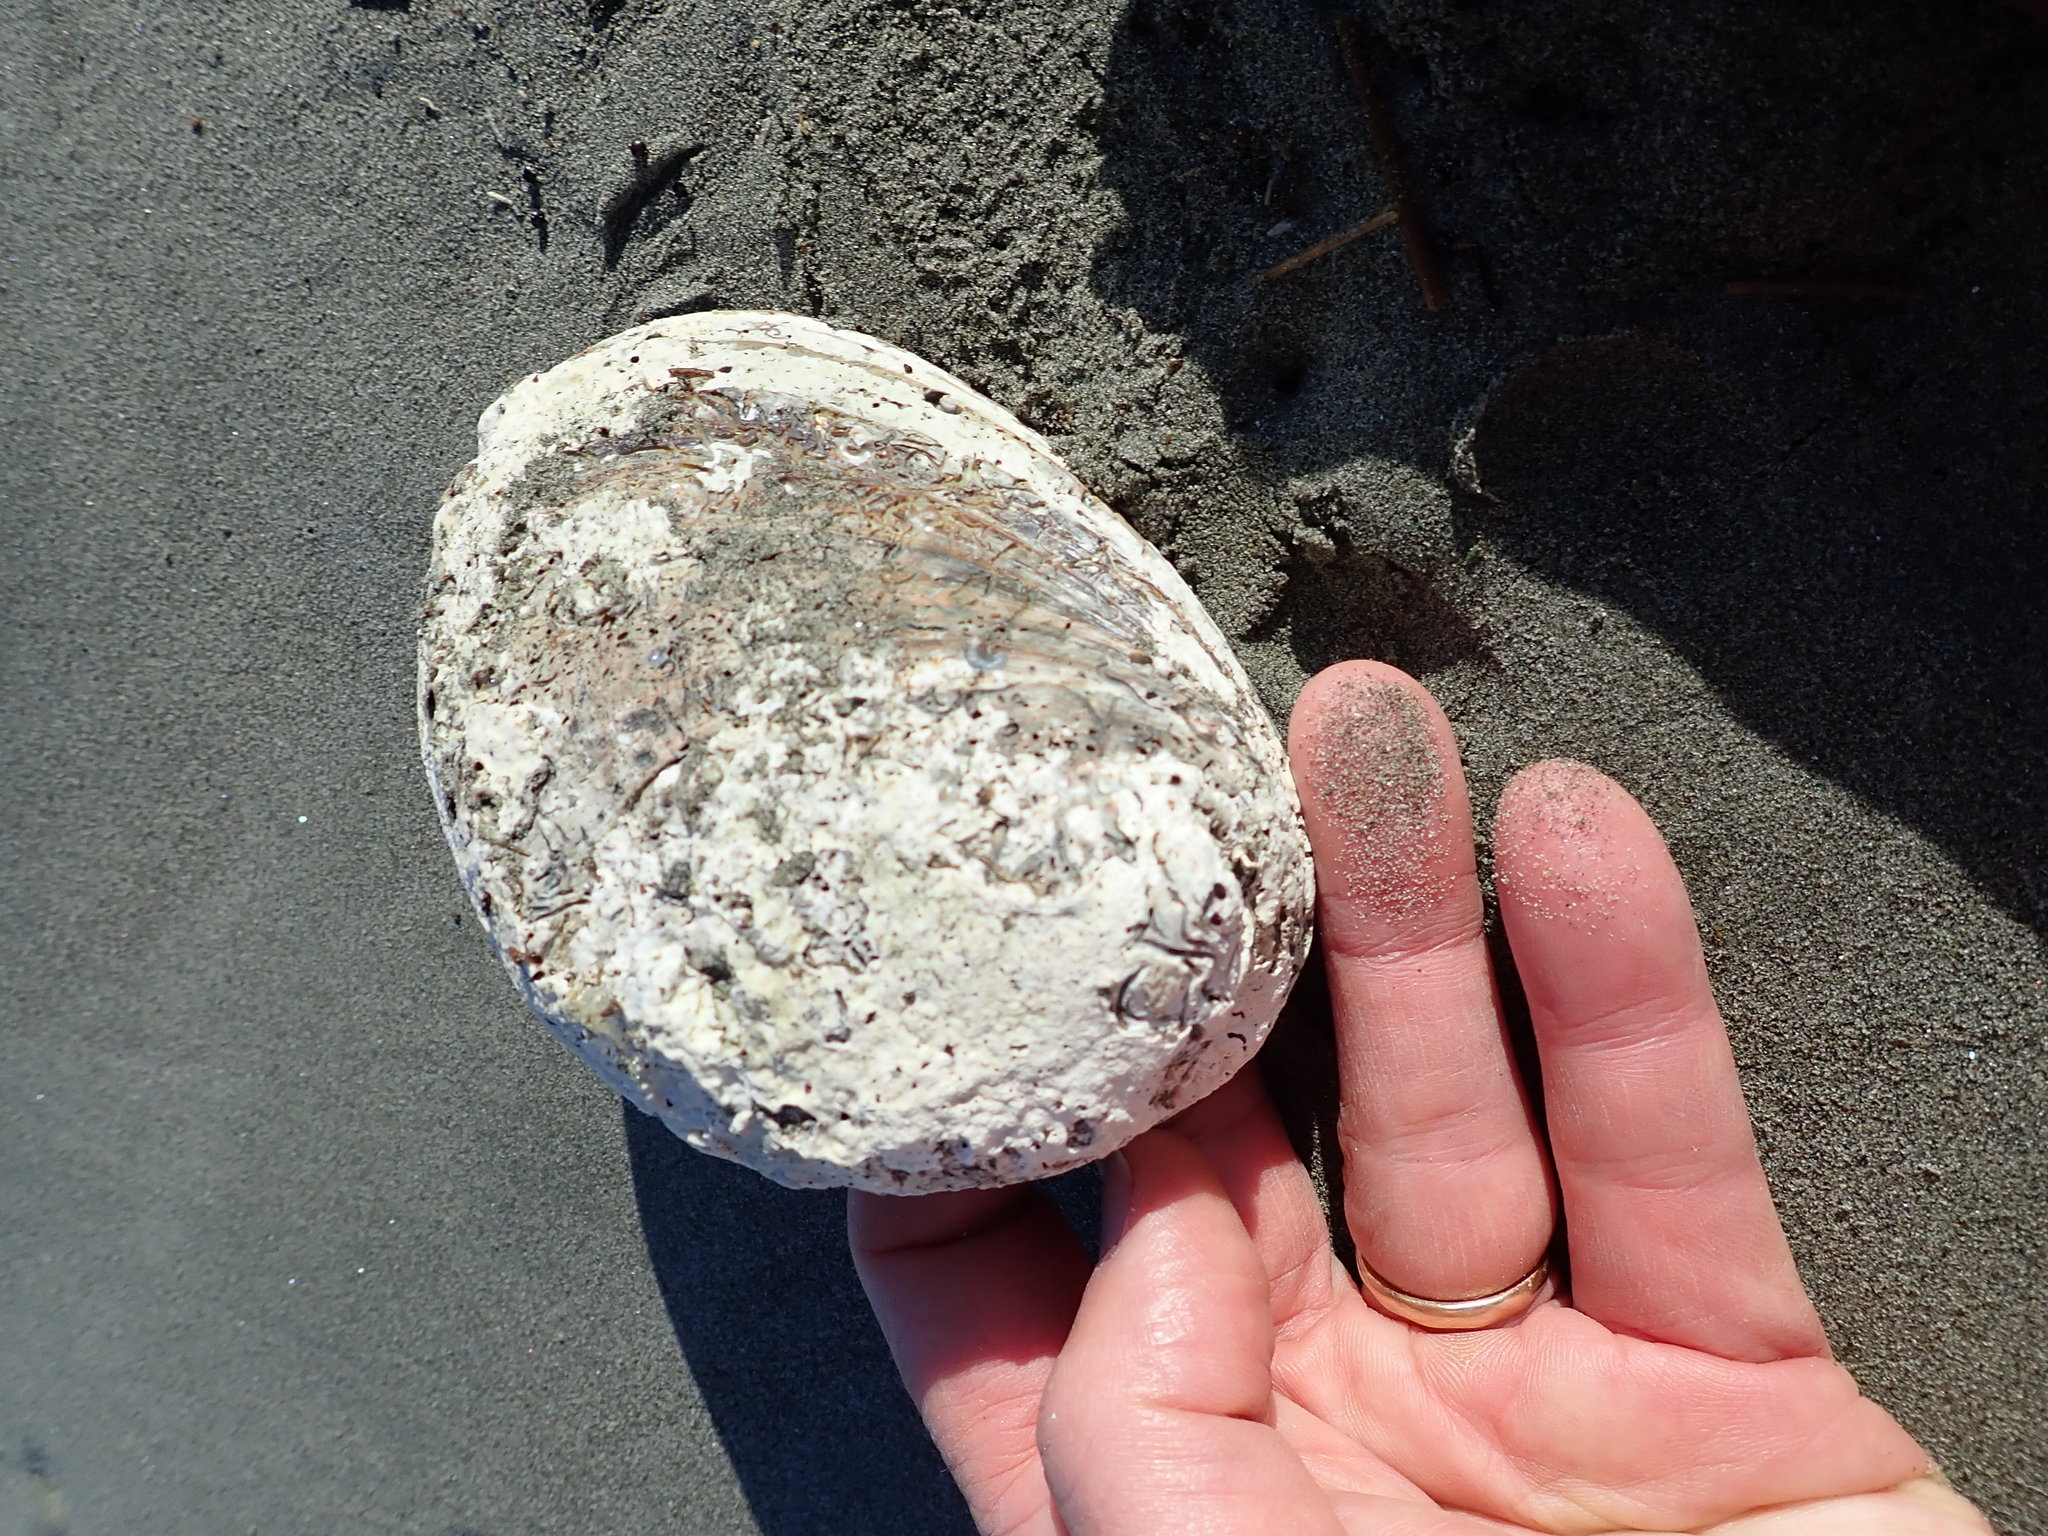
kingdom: Animalia
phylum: Mollusca
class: Gastropoda
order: Lepetellida
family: Haliotidae
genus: Haliotis
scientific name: Haliotis iris
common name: Abalone
